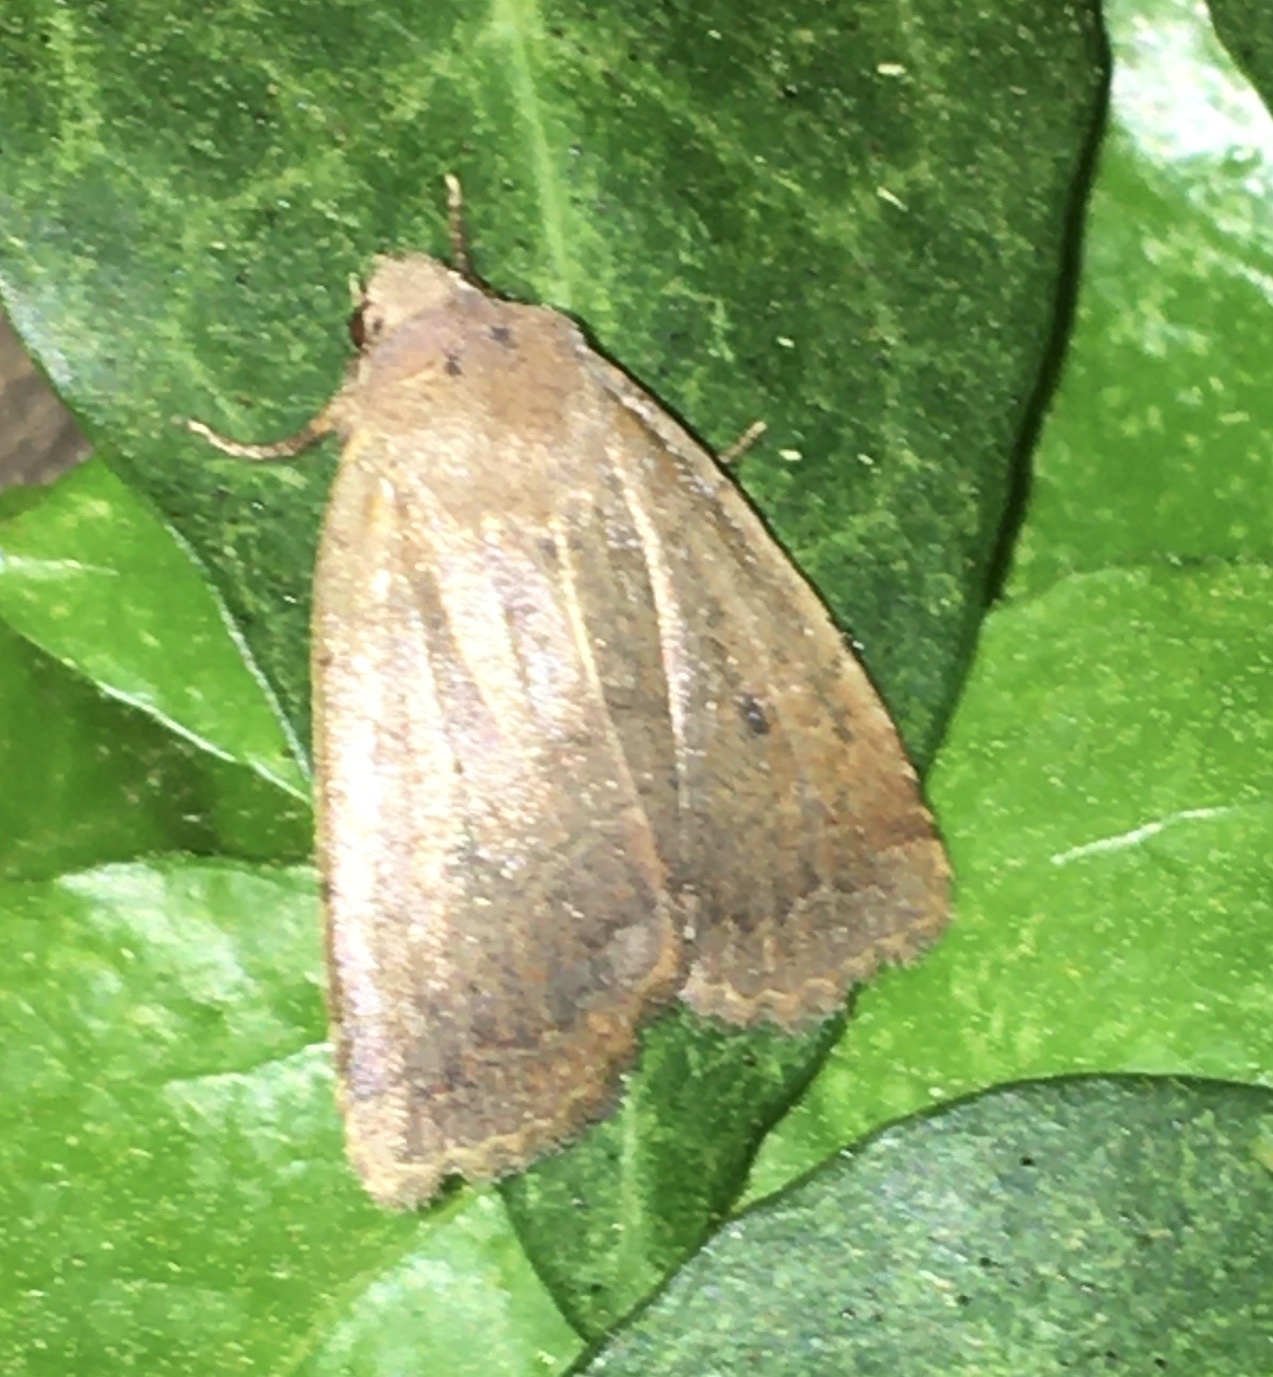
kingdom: Animalia
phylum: Arthropoda
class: Insecta
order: Lepidoptera
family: Noctuidae
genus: Athetis
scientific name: Athetis tarda
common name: Slowpoke moth
